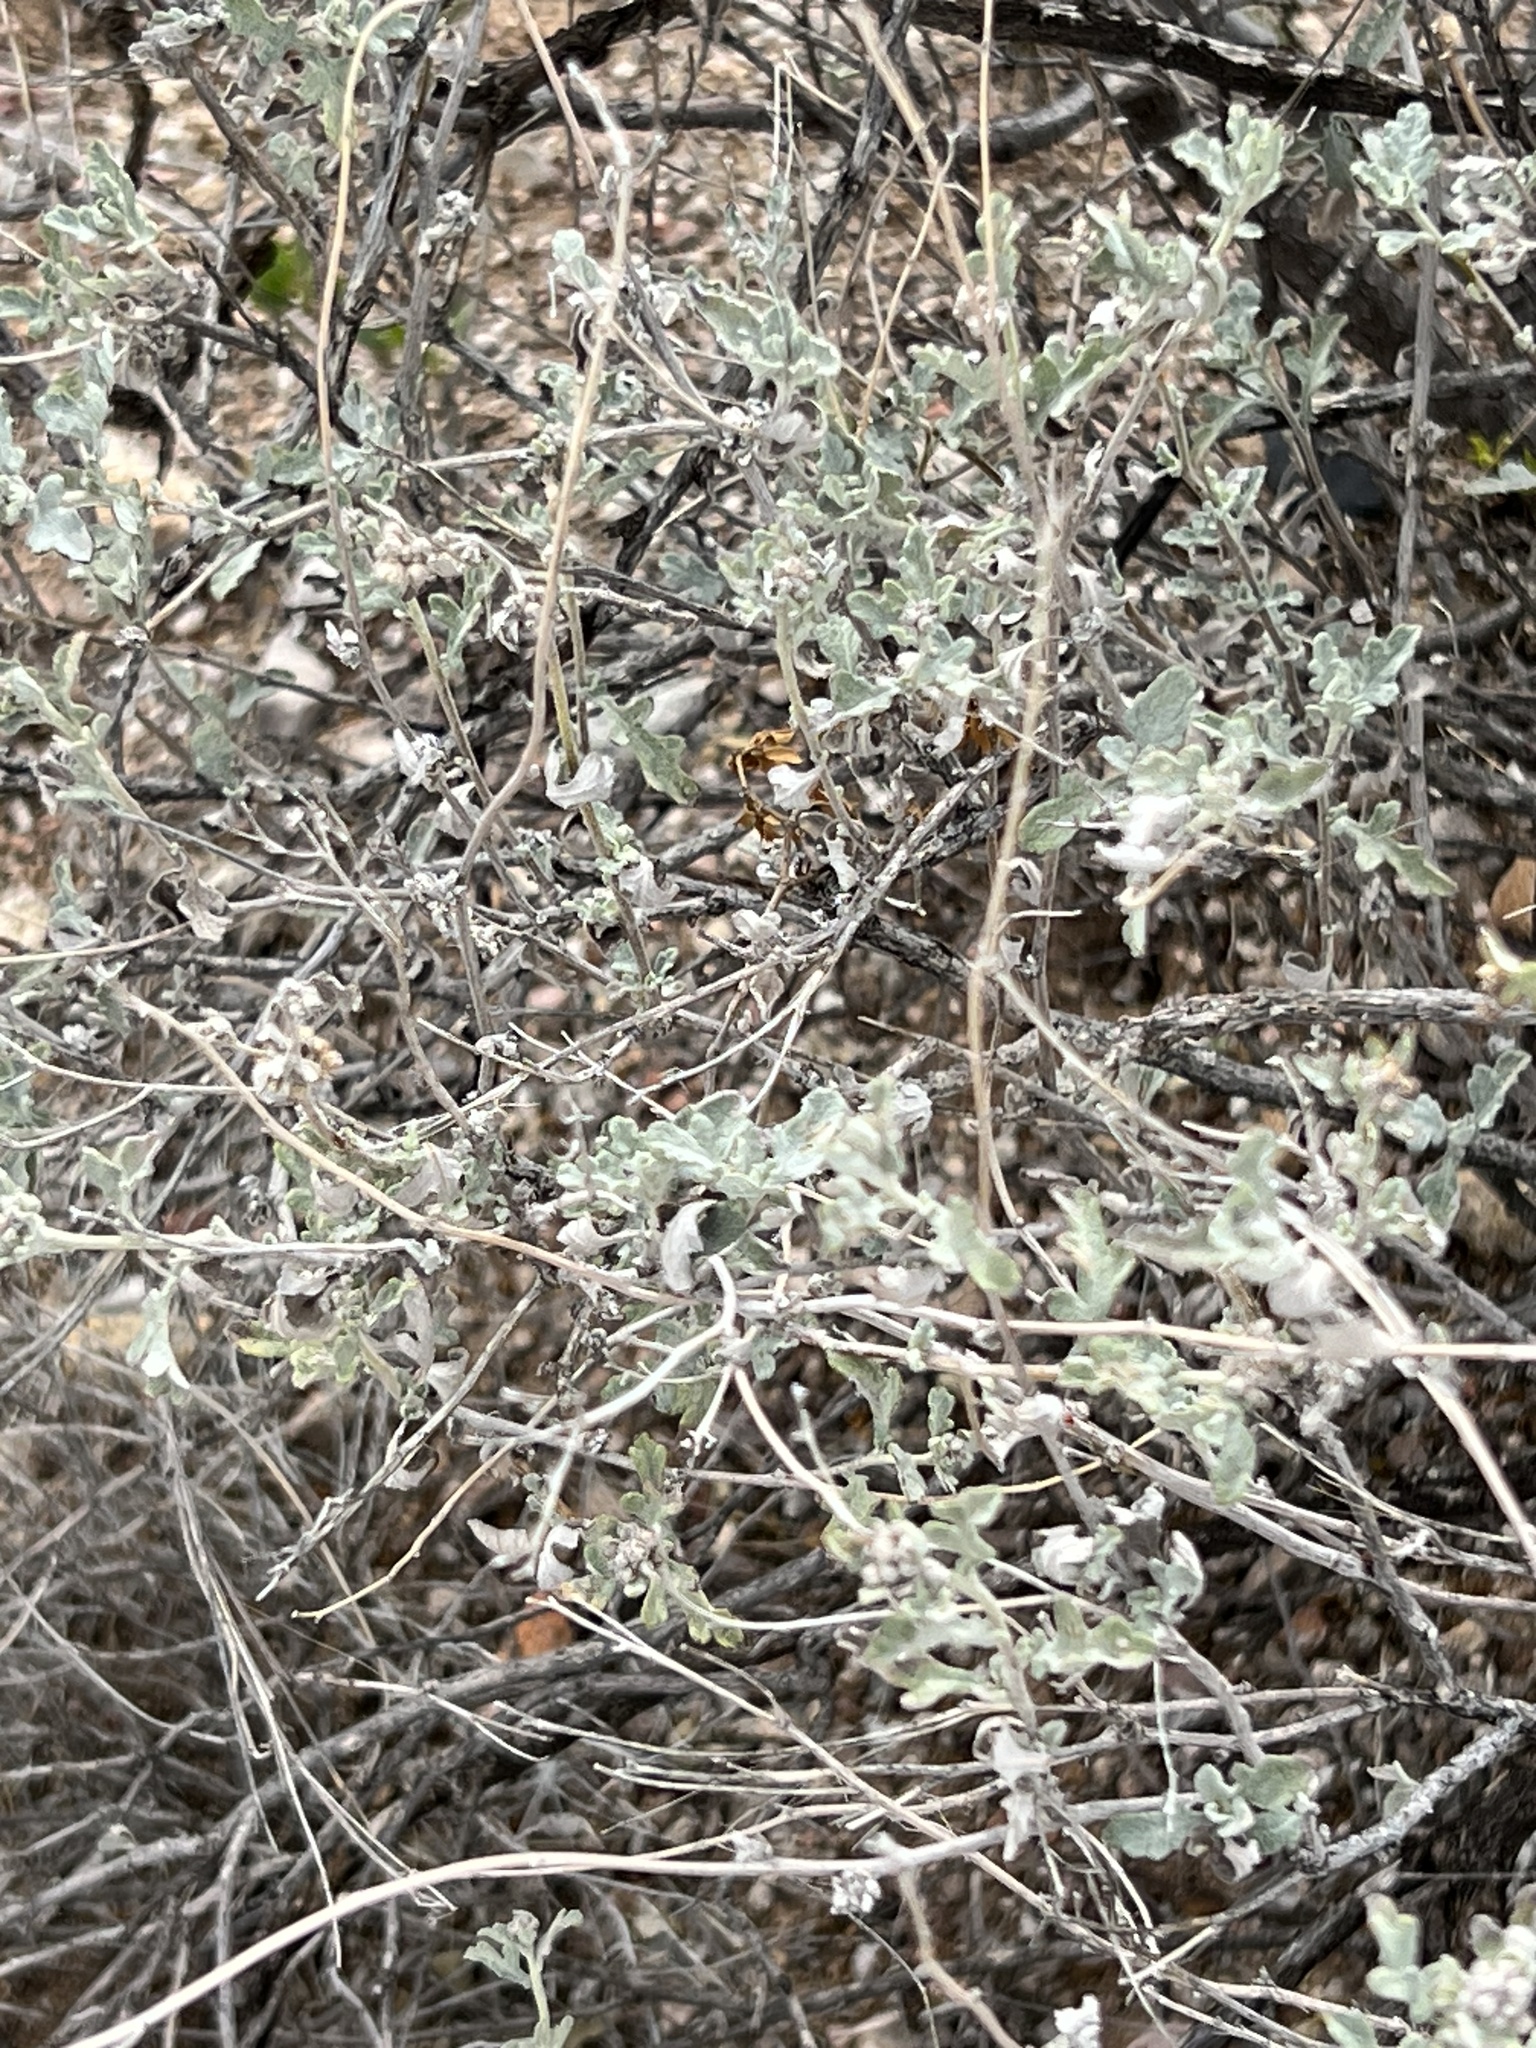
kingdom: Plantae
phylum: Tracheophyta
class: Magnoliopsida
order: Asterales
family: Asteraceae
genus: Parthenium
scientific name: Parthenium incanum
